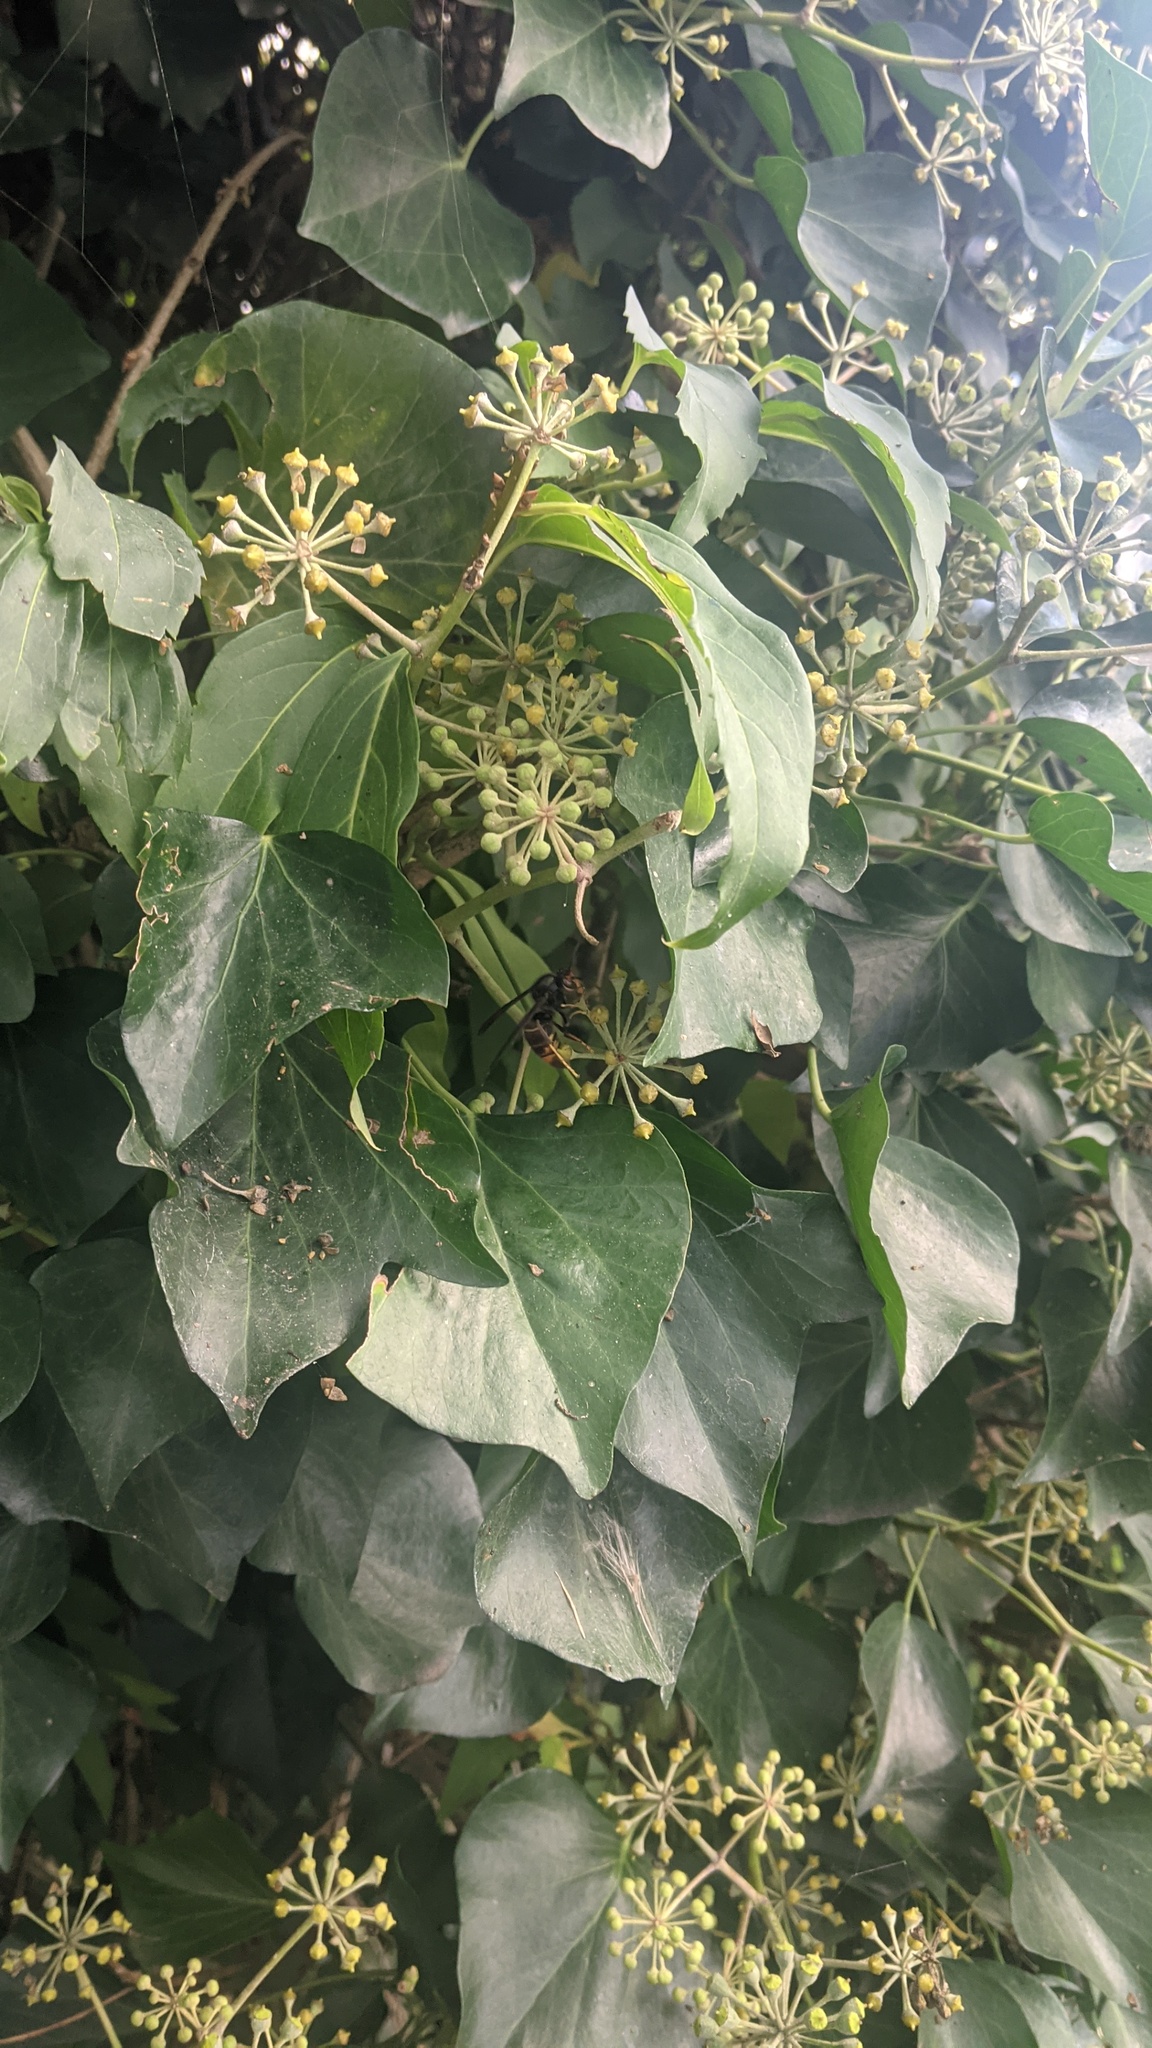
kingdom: Animalia
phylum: Arthropoda
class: Insecta
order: Hymenoptera
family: Vespidae
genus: Vespa
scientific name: Vespa velutina
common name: Asian hornet
